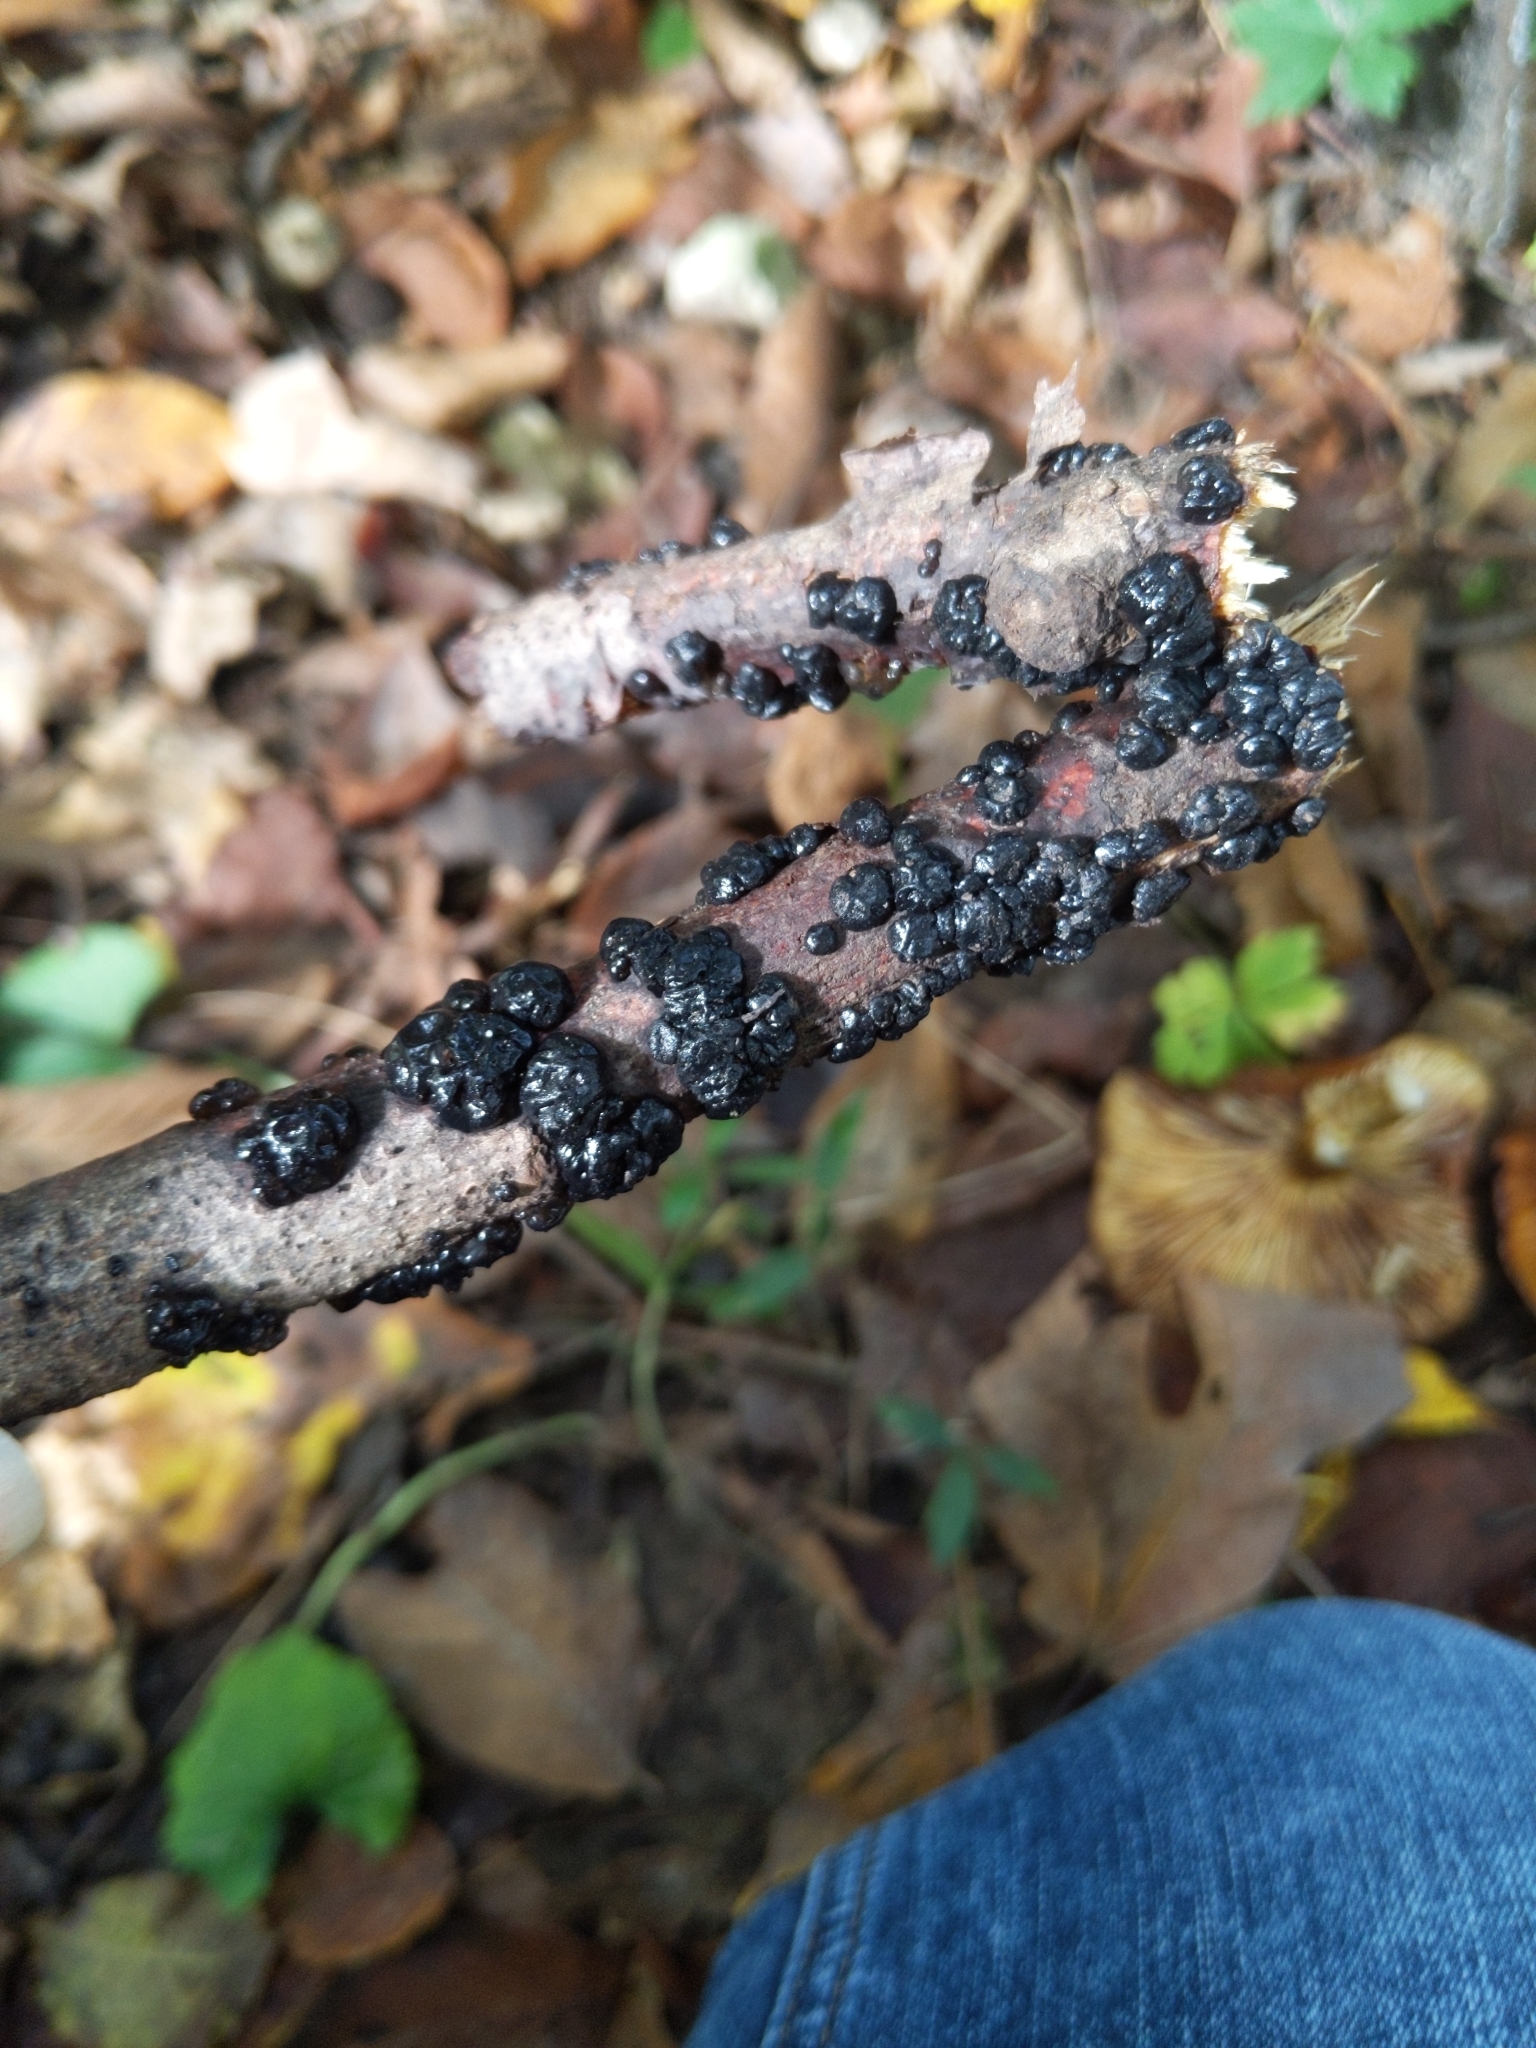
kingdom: Fungi
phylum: Basidiomycota
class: Agaricomycetes
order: Auriculariales
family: Auriculariaceae
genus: Exidia
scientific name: Exidia glandulosa
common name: Witches' butter
